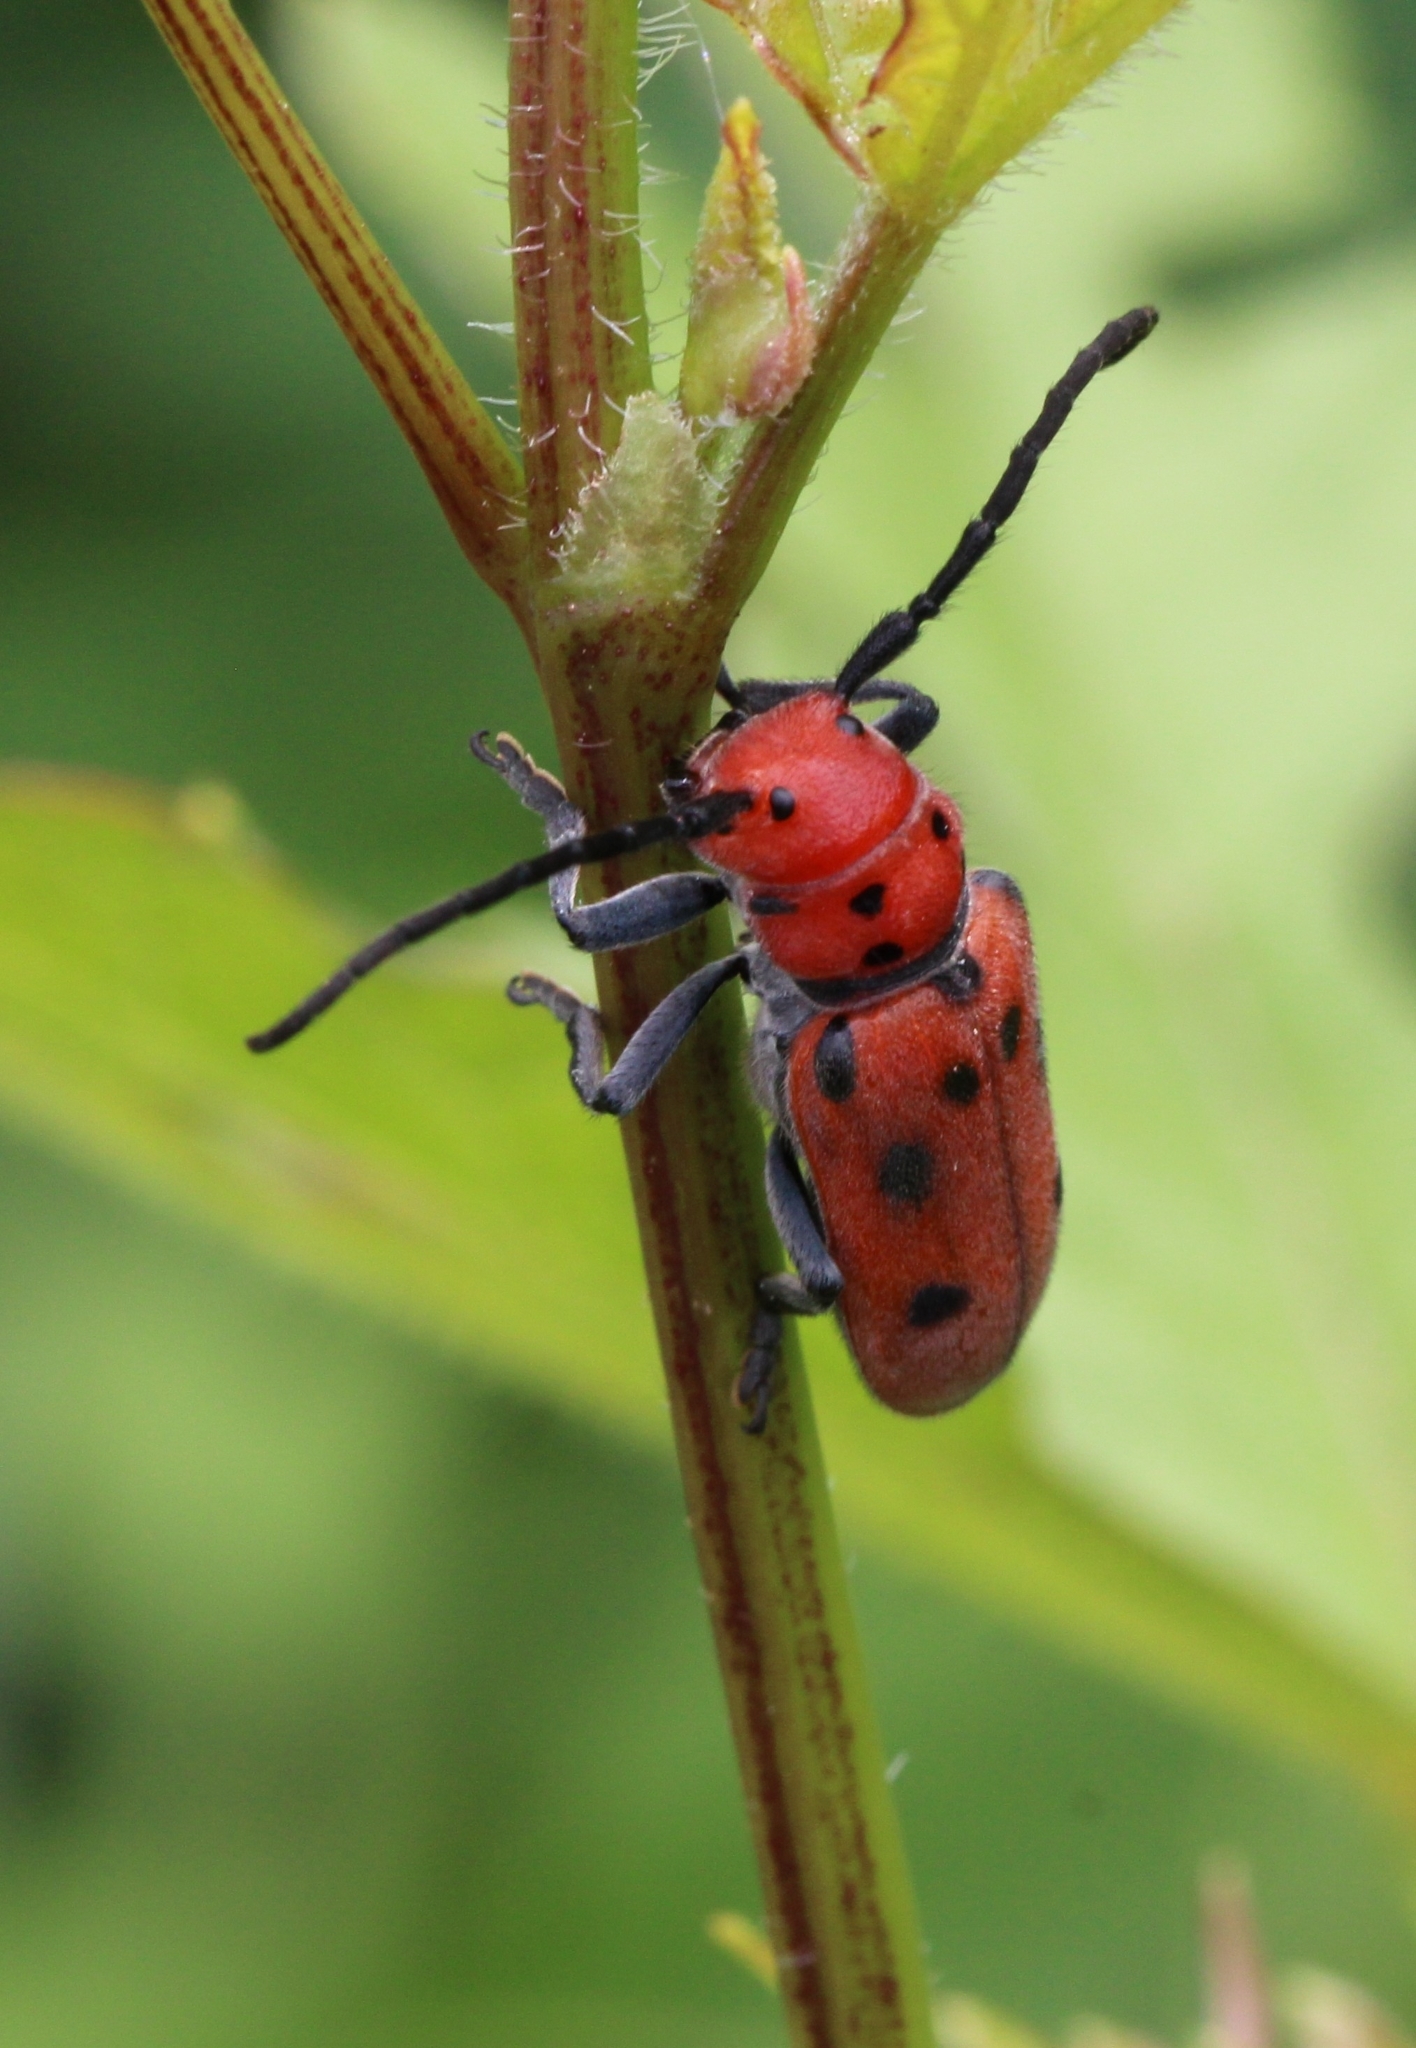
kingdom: Animalia
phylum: Arthropoda
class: Insecta
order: Coleoptera
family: Cerambycidae
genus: Tetraopes
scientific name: Tetraopes tetrophthalmus
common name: Red milkweed beetle
